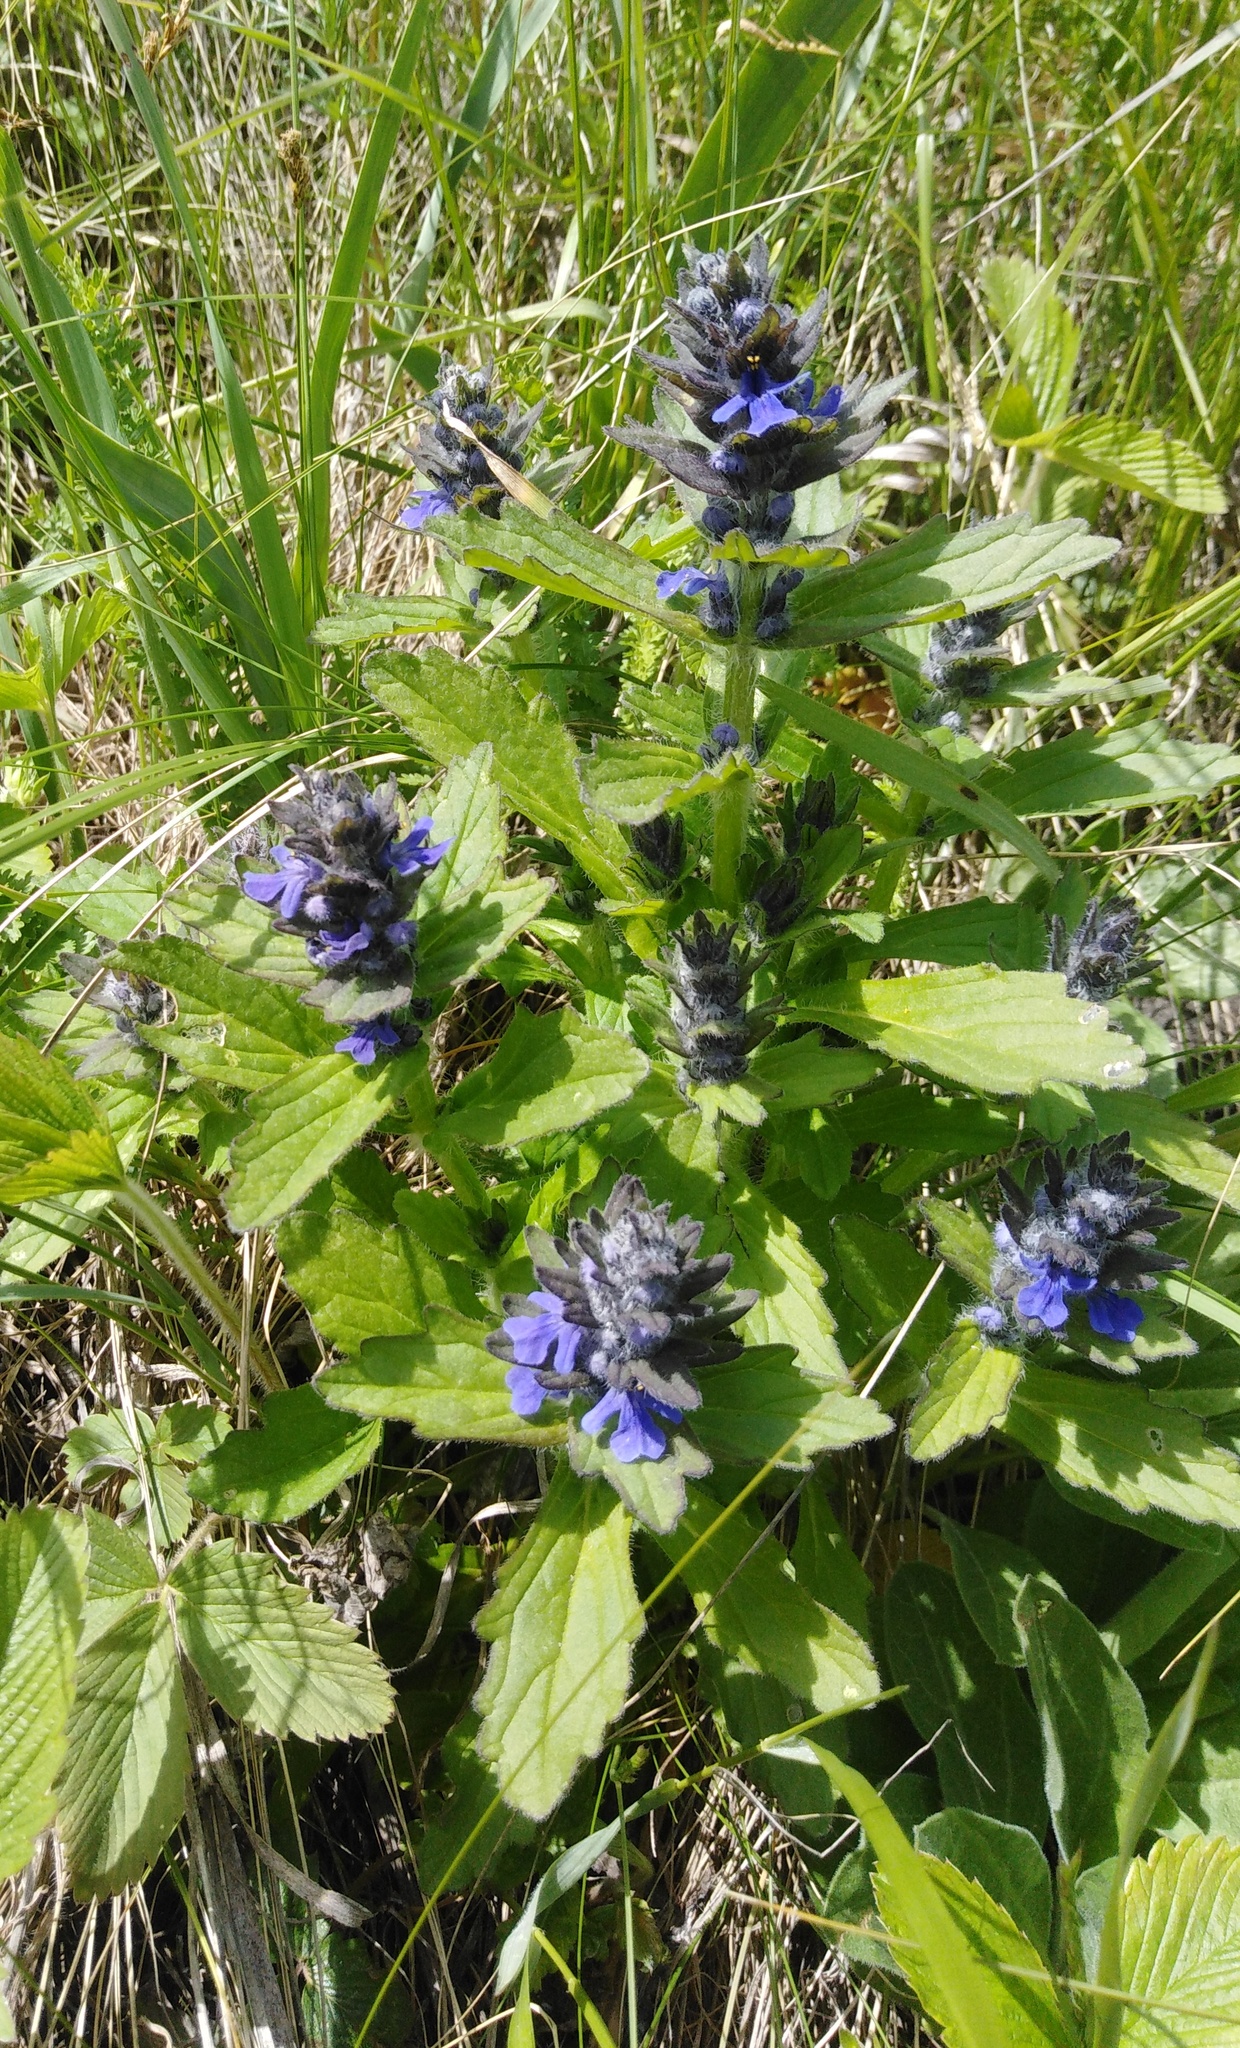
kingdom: Plantae
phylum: Tracheophyta
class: Magnoliopsida
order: Lamiales
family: Lamiaceae
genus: Ajuga
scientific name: Ajuga genevensis
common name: Blue bugle
